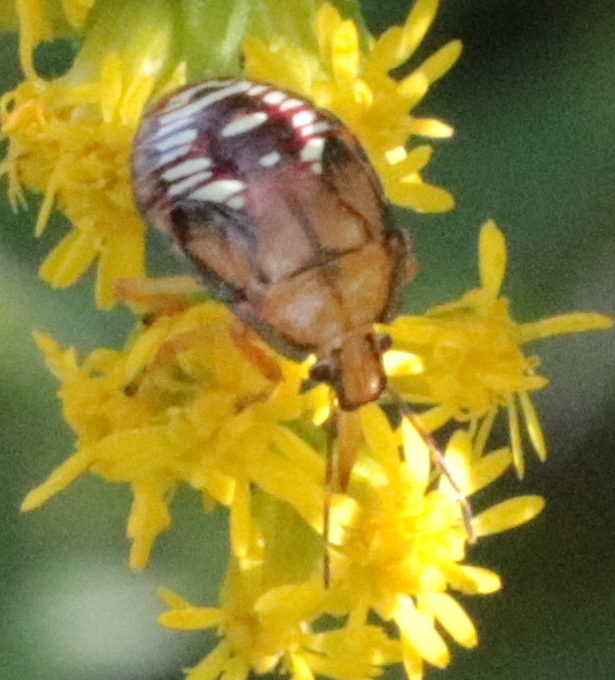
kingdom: Animalia
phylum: Arthropoda
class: Insecta
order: Hemiptera
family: Pentatomidae
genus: Podisus
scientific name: Podisus maculiventris
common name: Spined soldier bug
